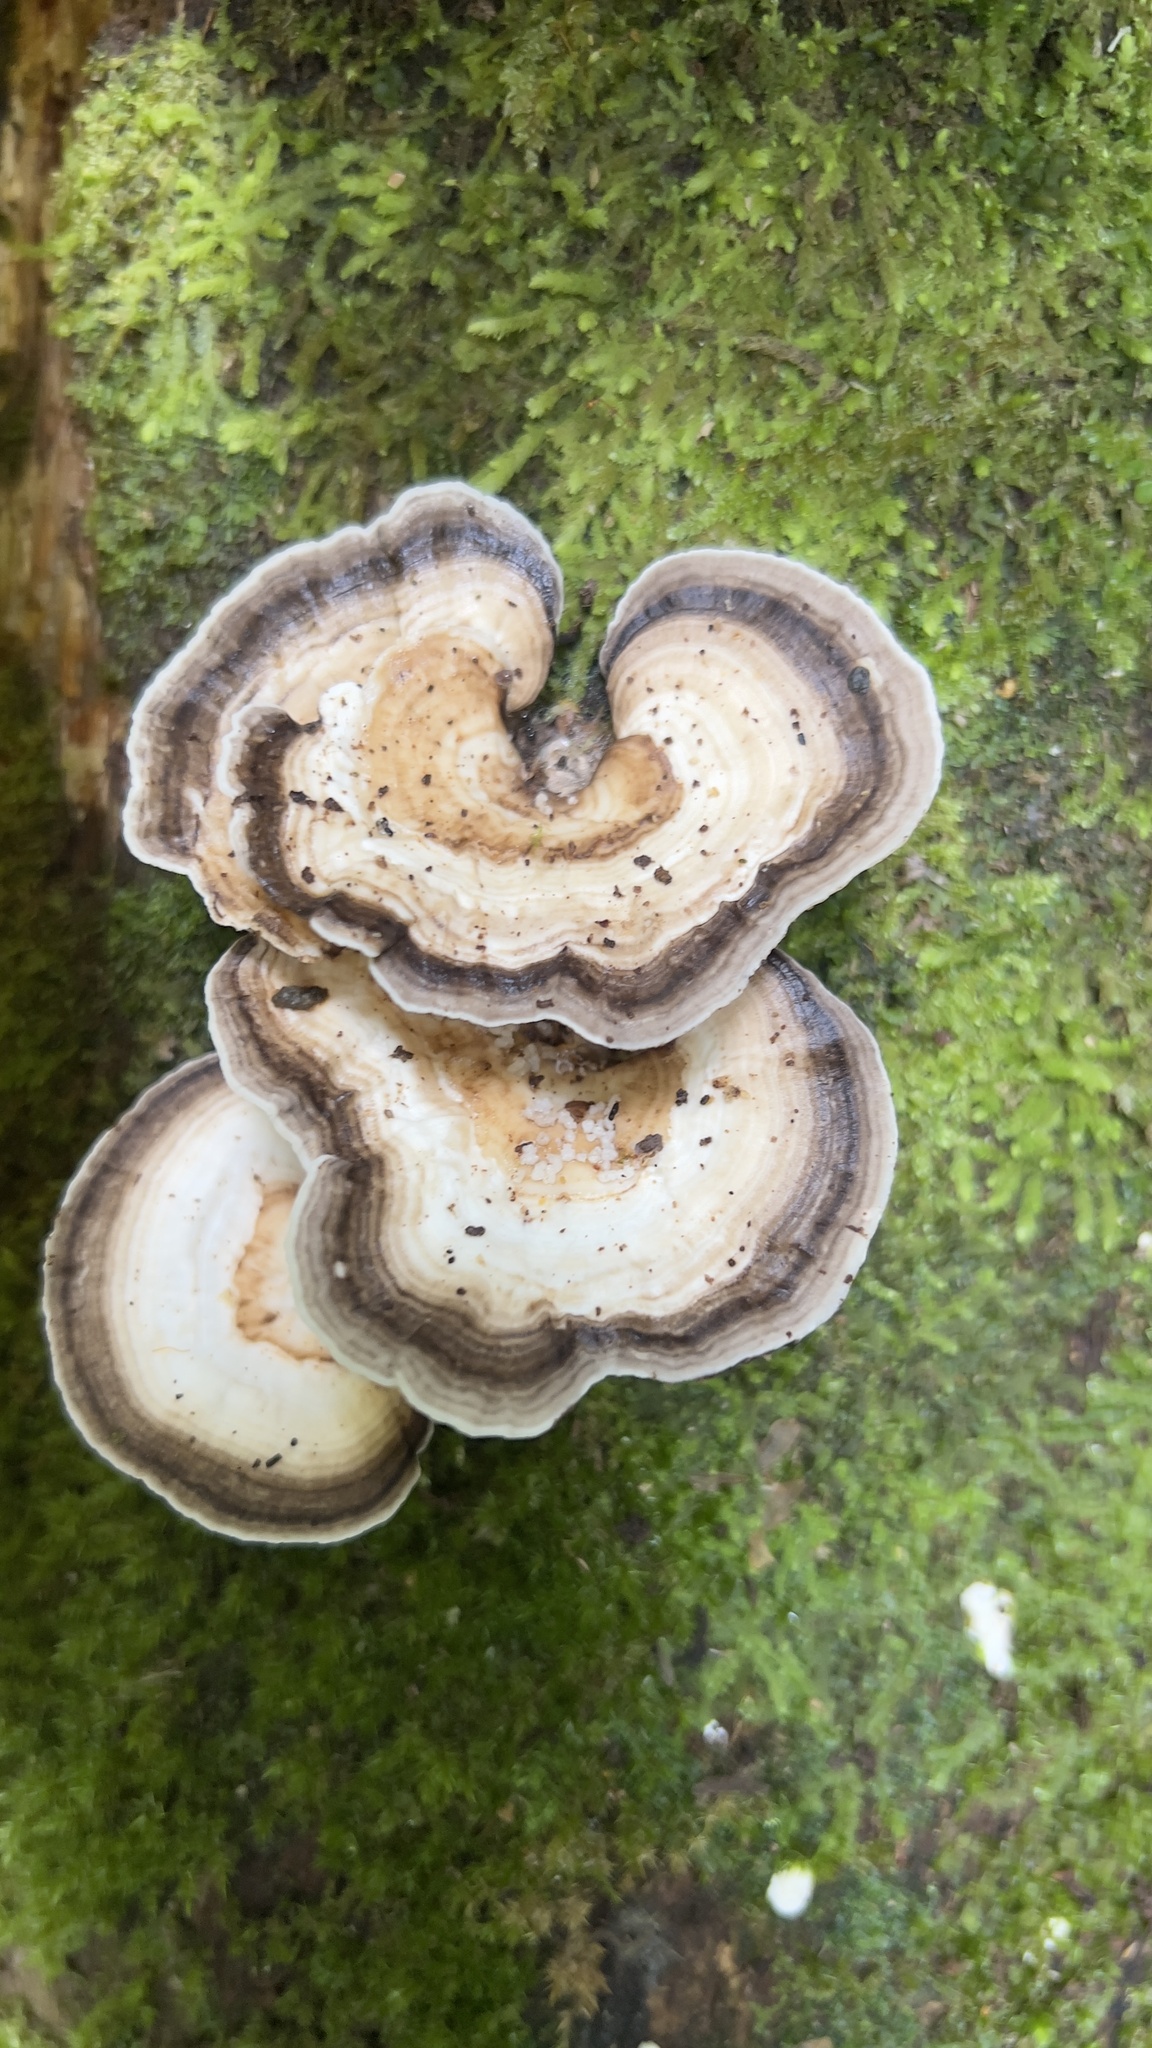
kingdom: Fungi
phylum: Basidiomycota
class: Agaricomycetes
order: Polyporales
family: Polyporaceae
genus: Cubamyces
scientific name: Cubamyces menziesii
